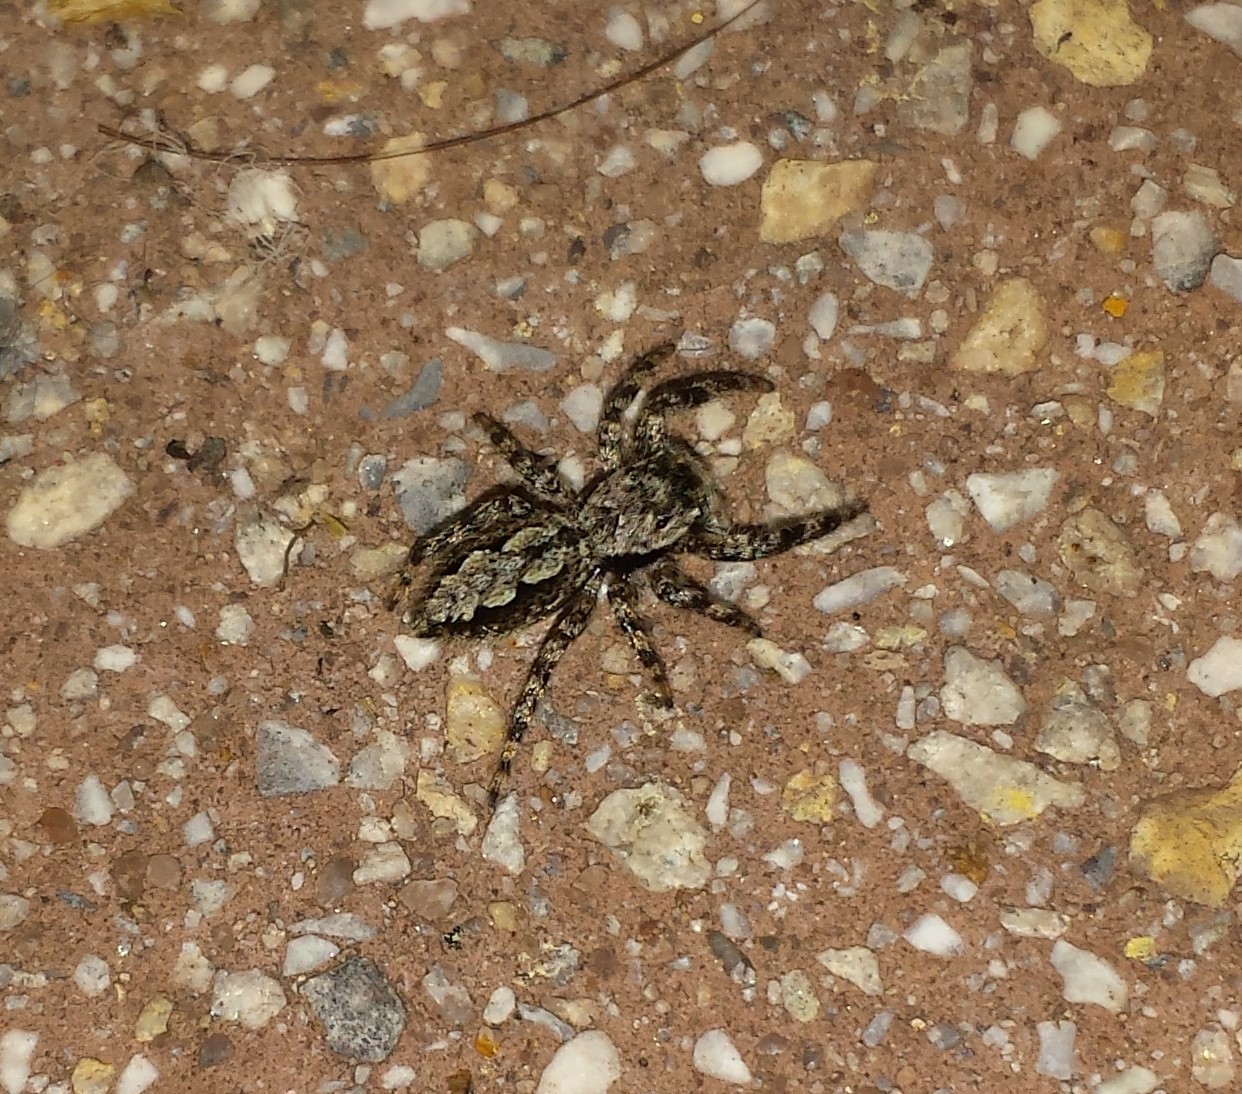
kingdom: Animalia
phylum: Arthropoda
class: Arachnida
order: Araneae
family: Salticidae
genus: Platycryptus
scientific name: Platycryptus undatus
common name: Tan jumping spider
